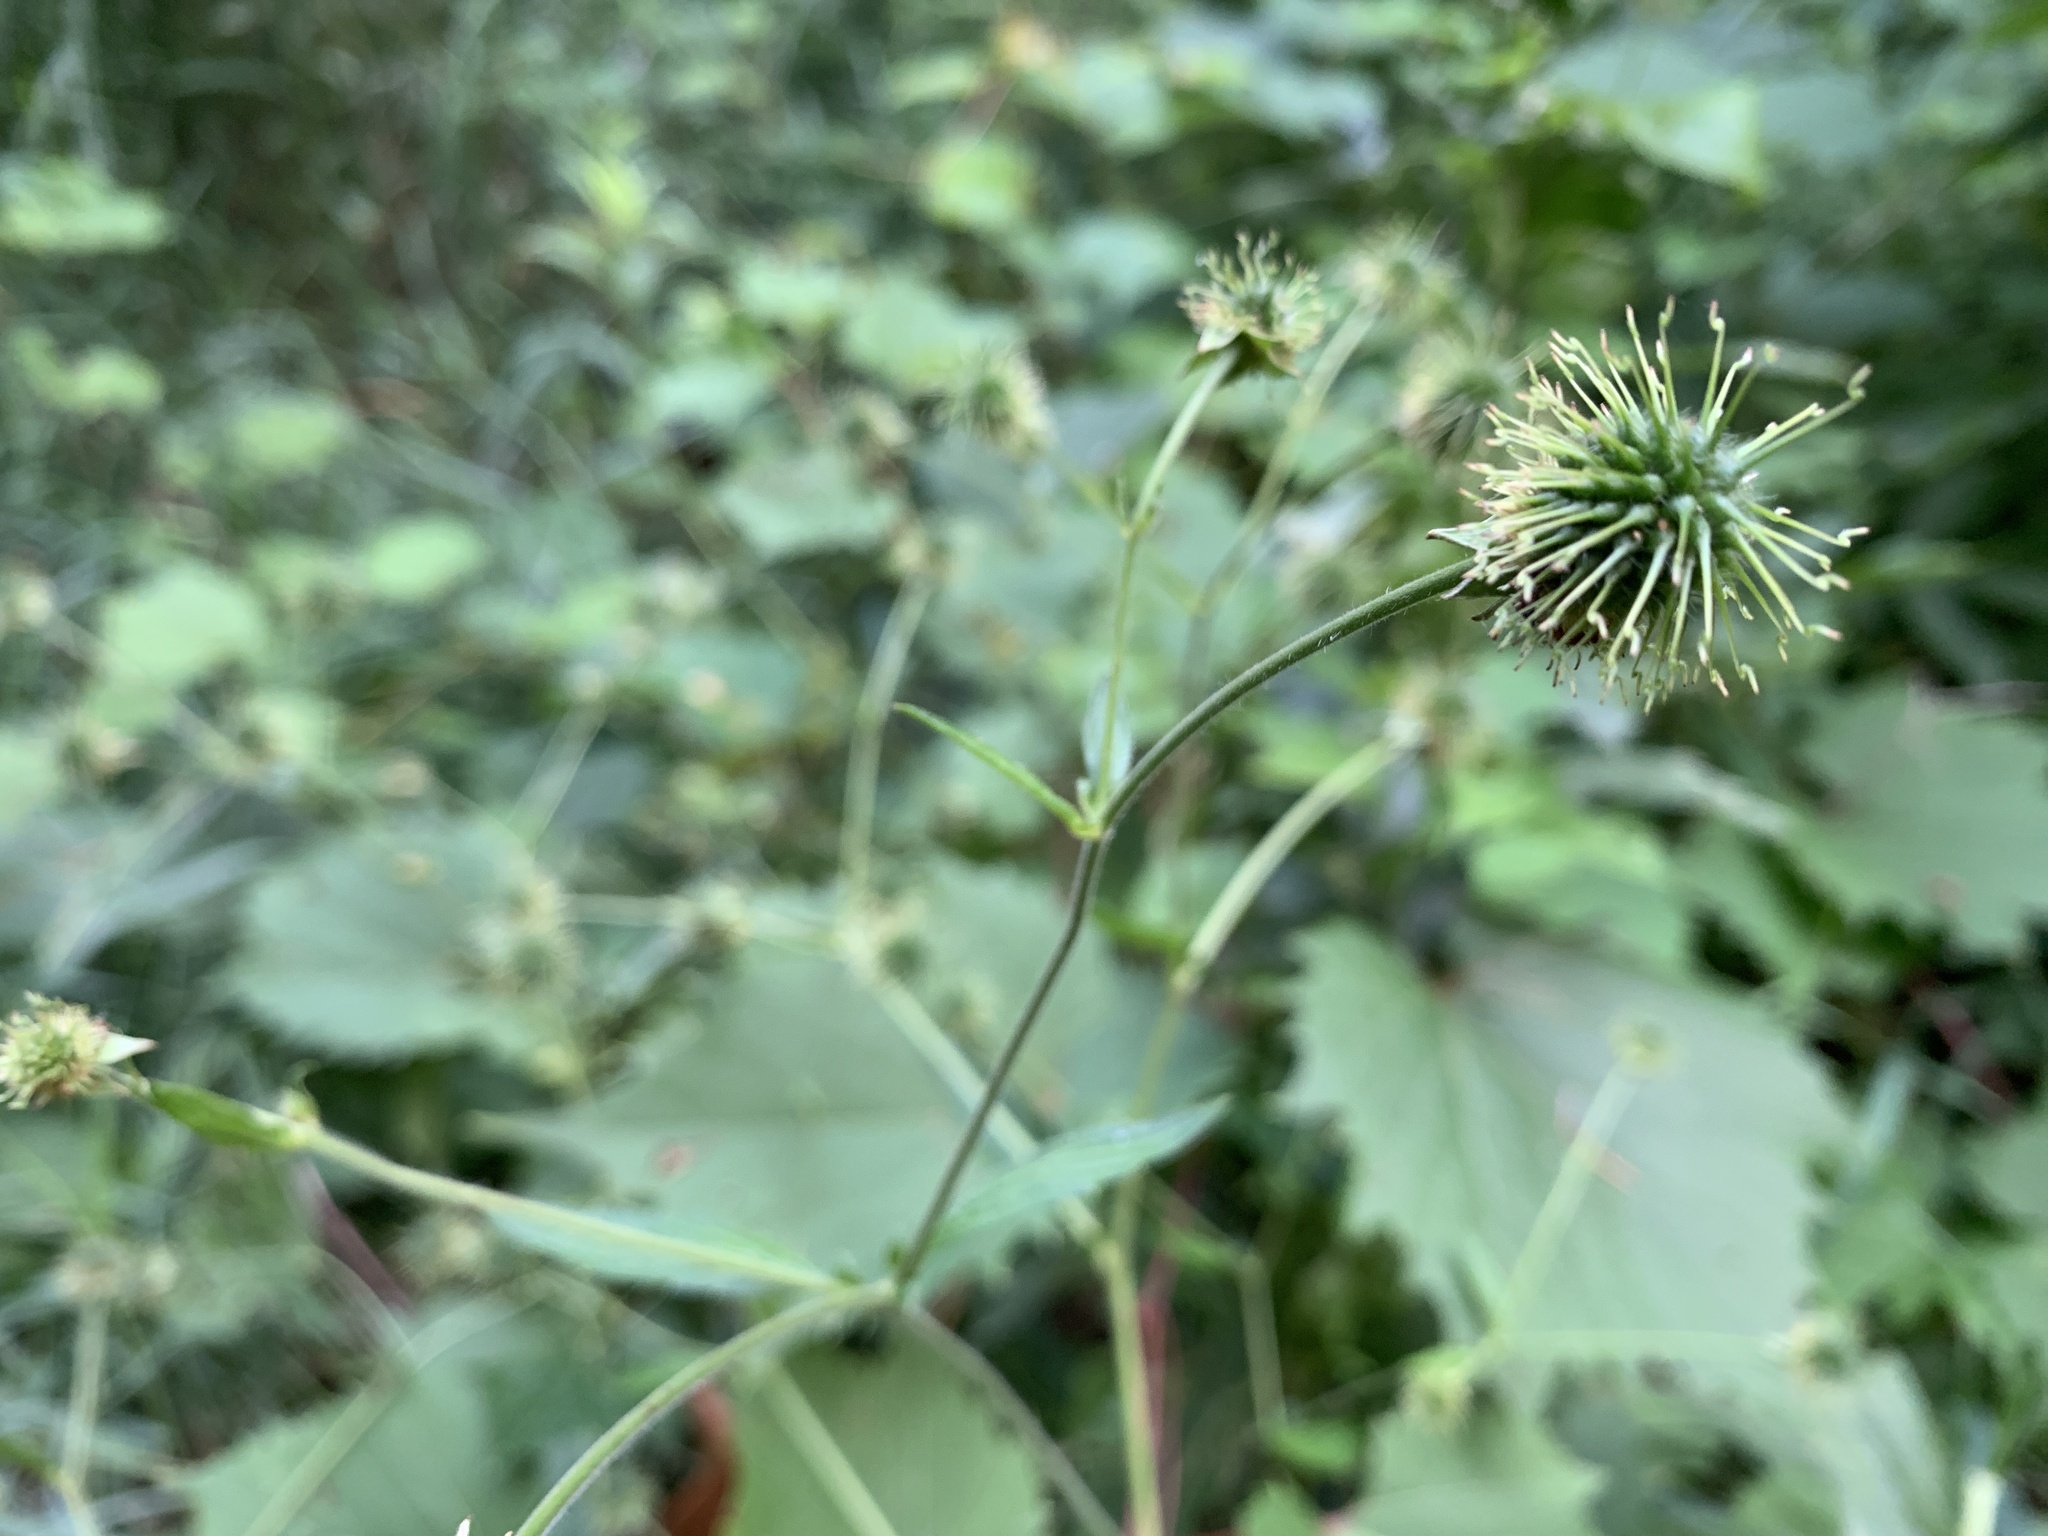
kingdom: Plantae
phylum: Tracheophyta
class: Magnoliopsida
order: Rosales
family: Rosaceae
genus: Geum
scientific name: Geum canadense
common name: White avens
